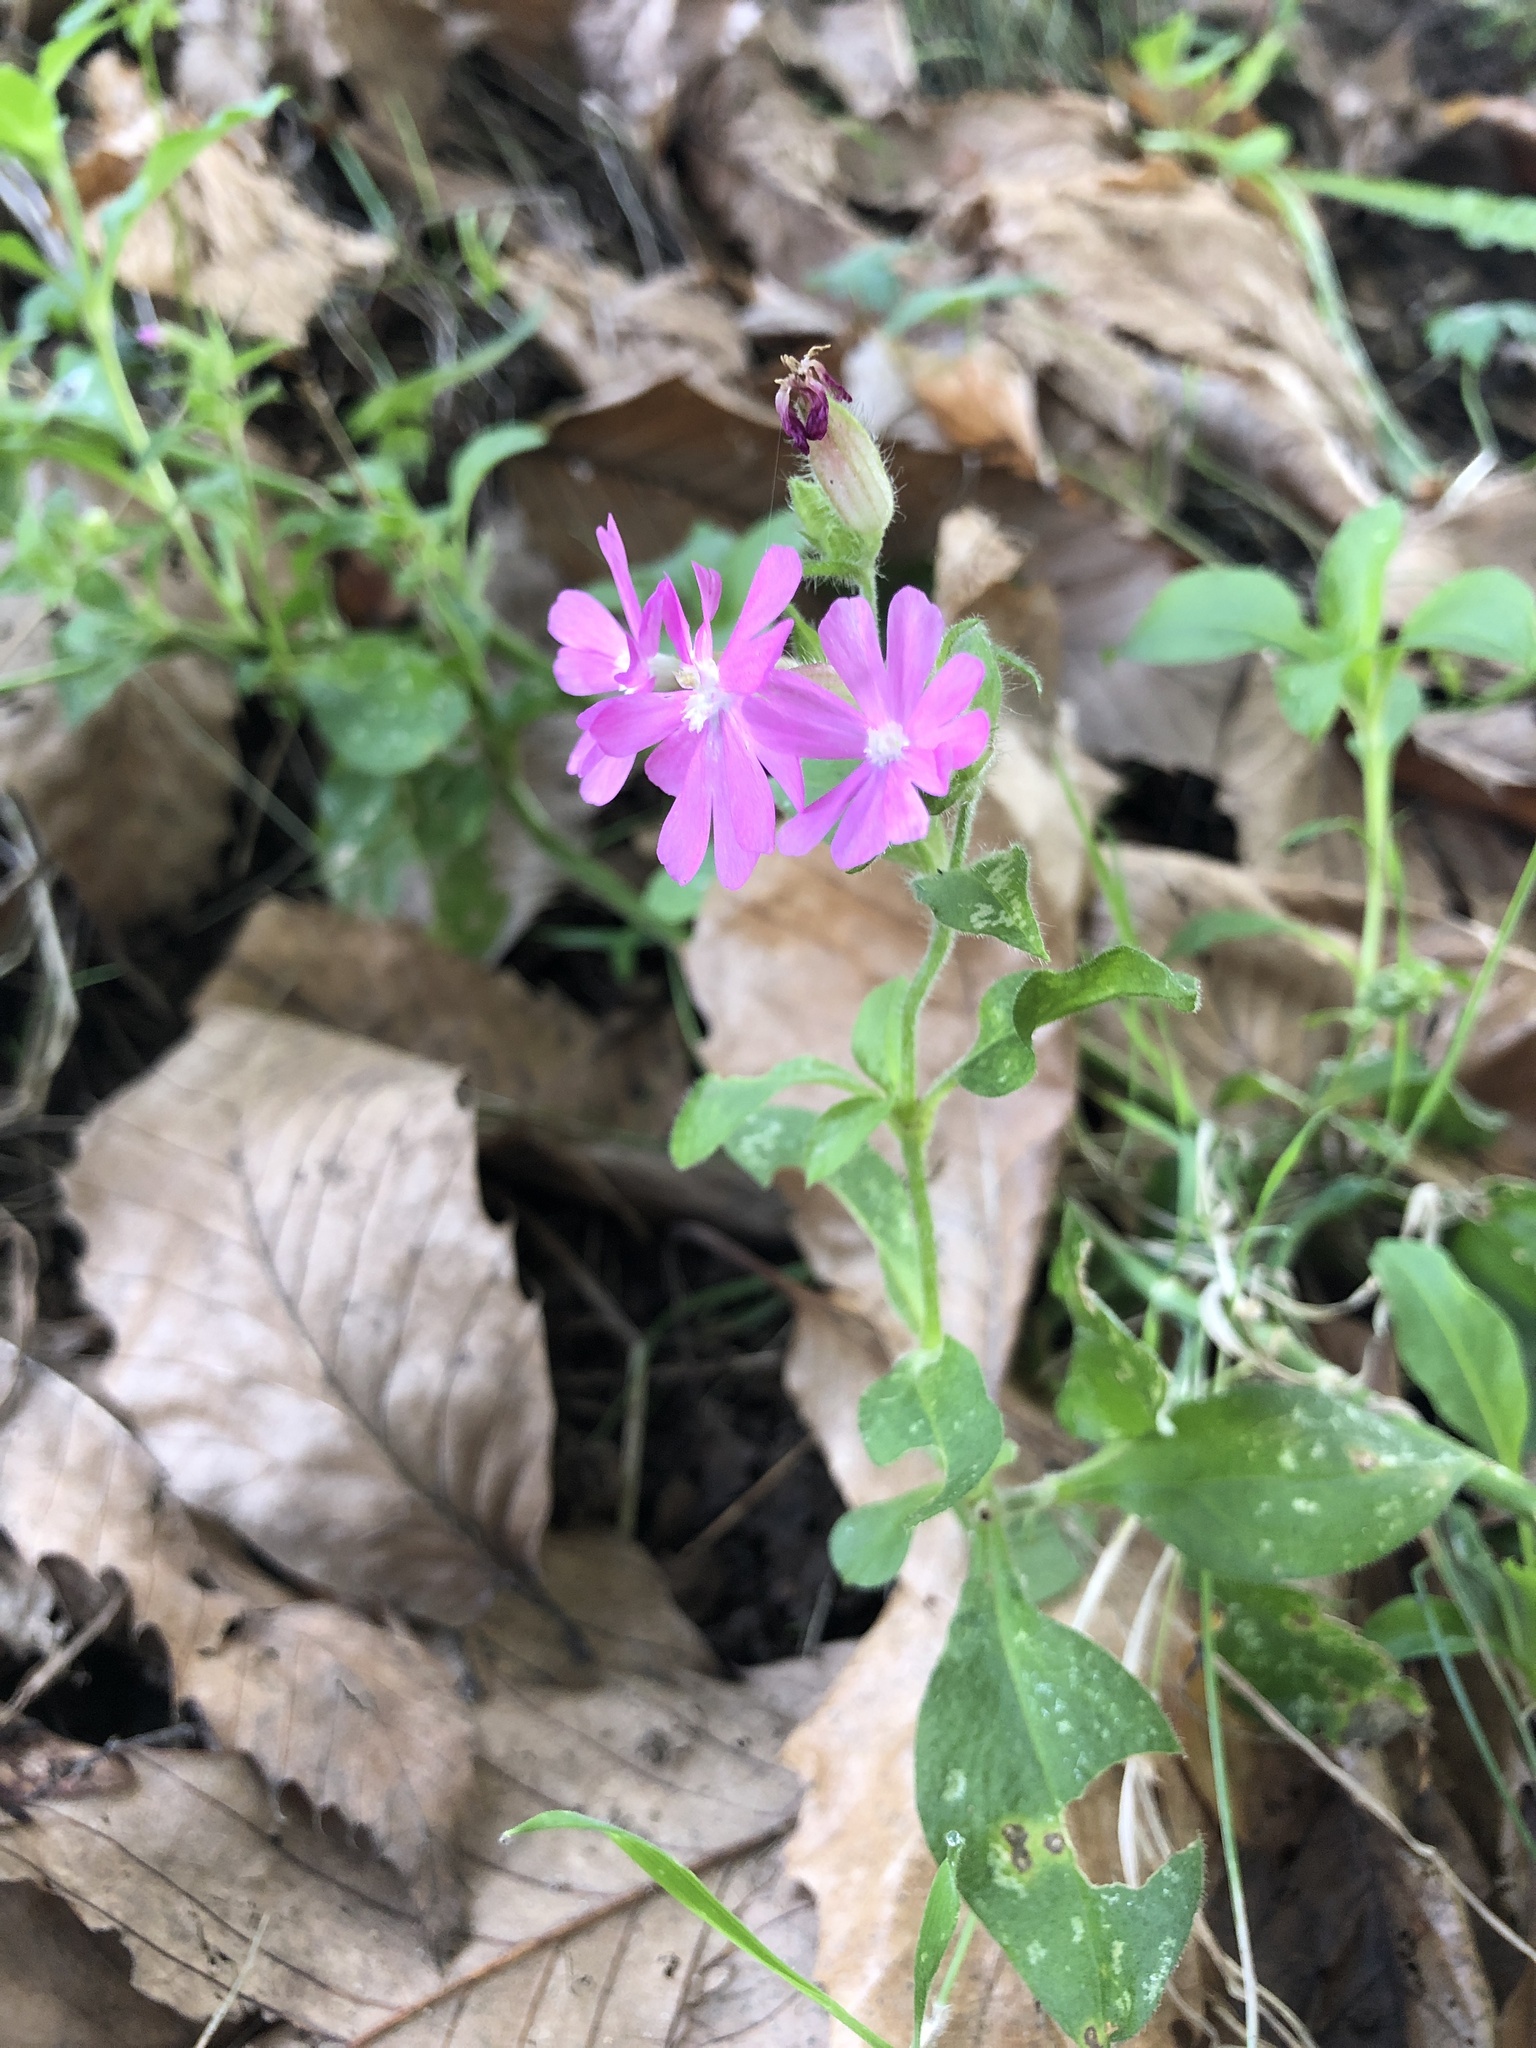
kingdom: Plantae
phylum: Tracheophyta
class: Magnoliopsida
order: Caryophyllales
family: Caryophyllaceae
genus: Silene
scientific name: Silene dioica
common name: Red campion
